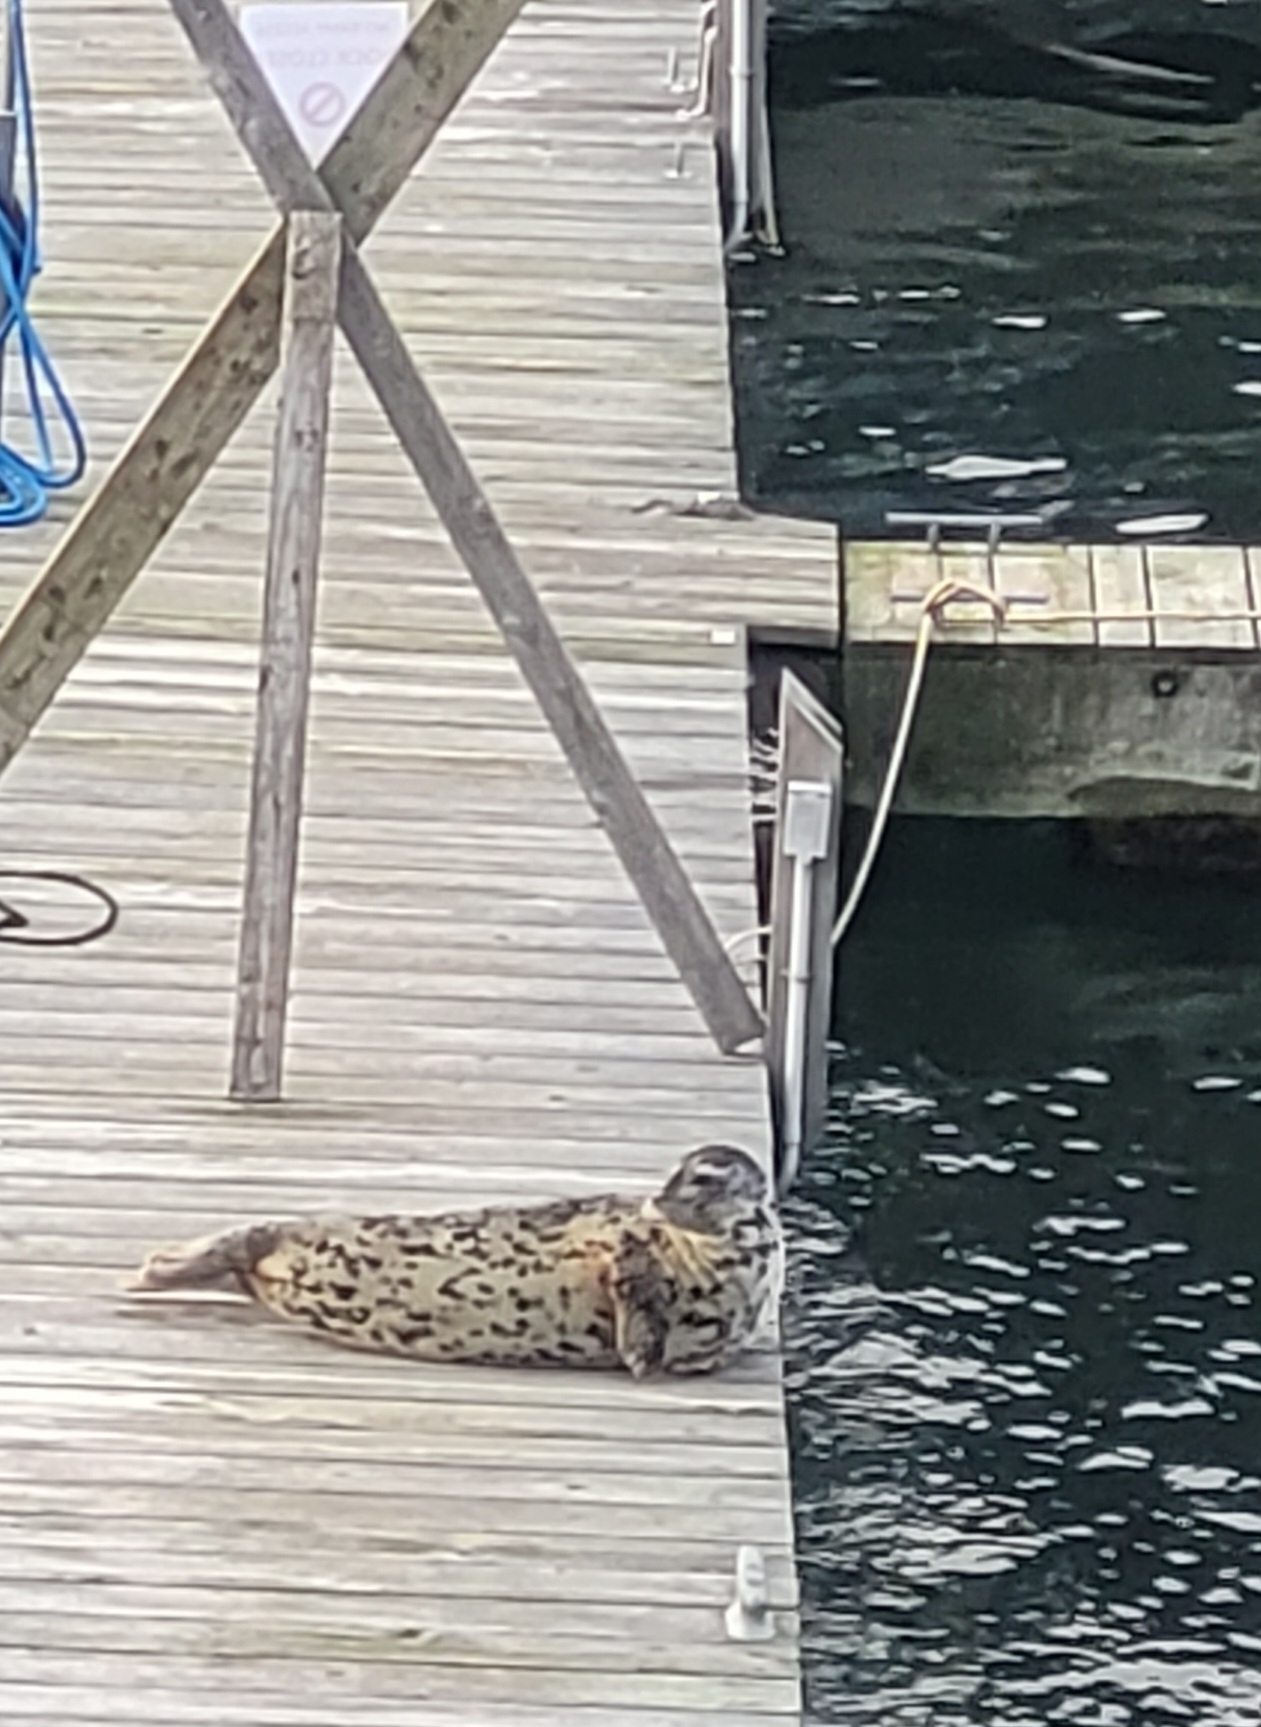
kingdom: Animalia
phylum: Chordata
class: Mammalia
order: Carnivora
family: Phocidae
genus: Phoca
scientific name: Phoca vitulina
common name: Harbor seal
